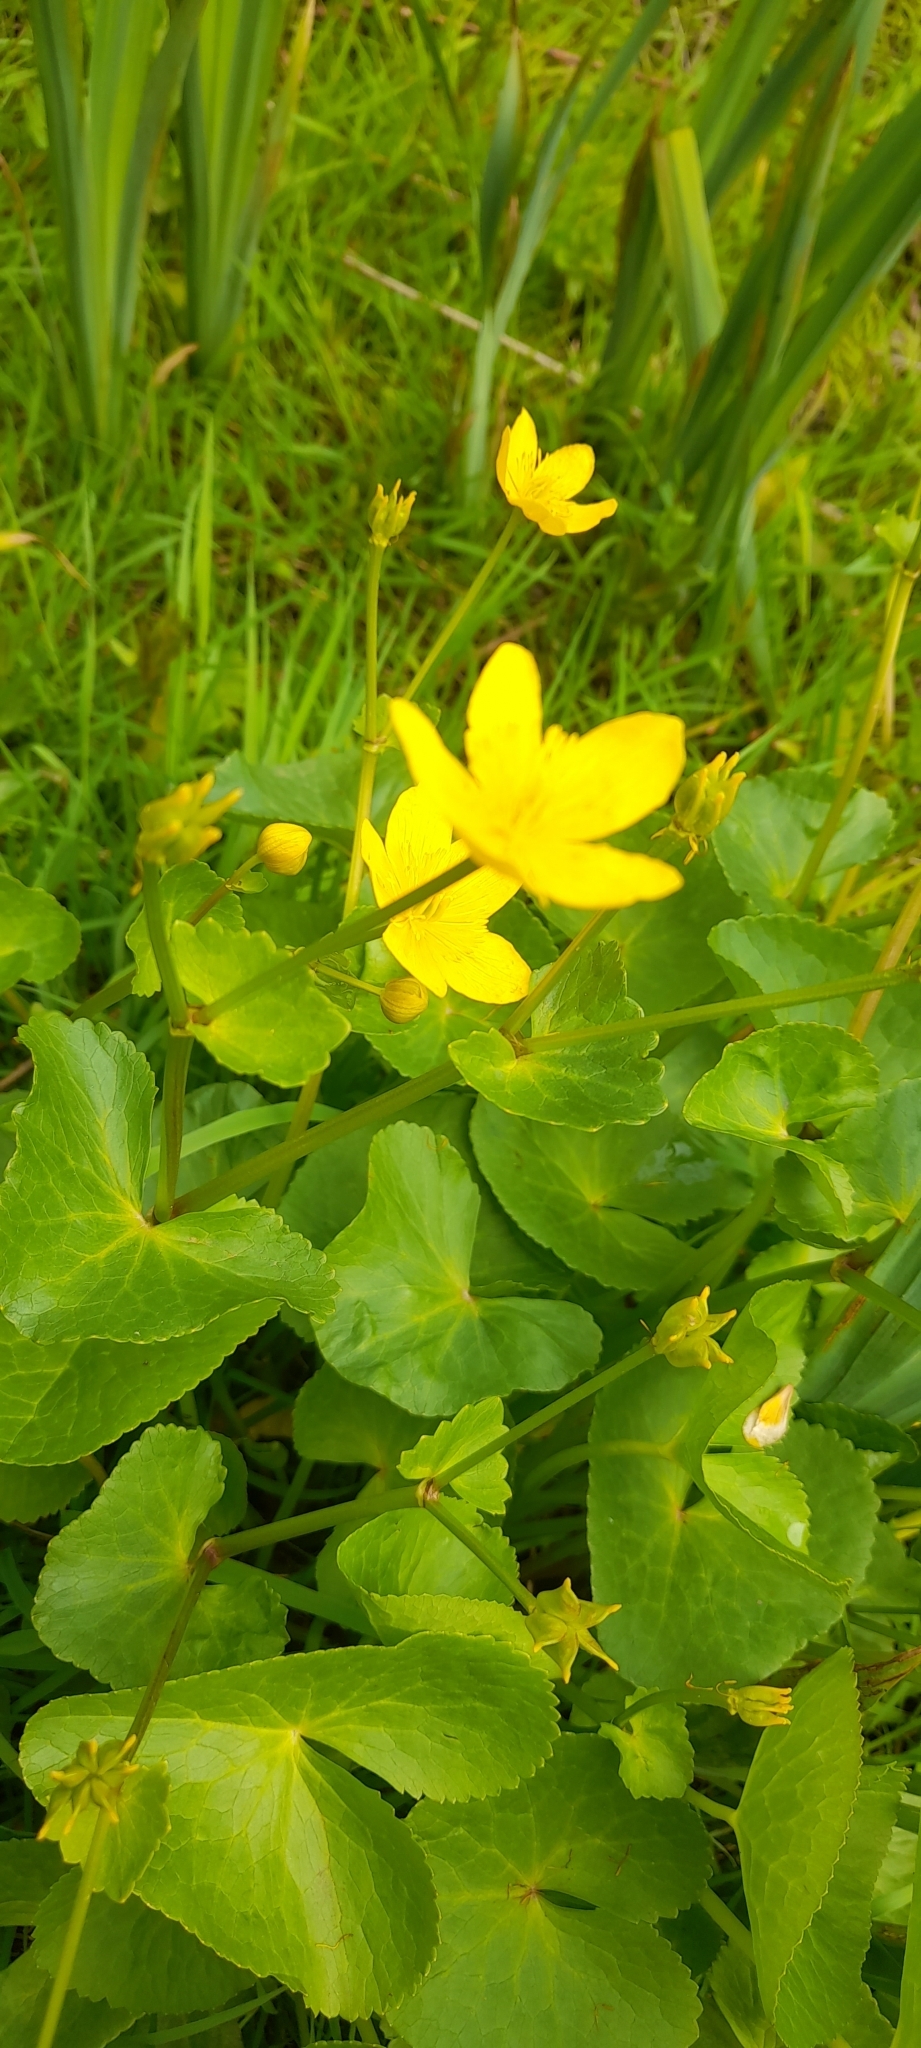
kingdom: Plantae
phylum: Tracheophyta
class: Magnoliopsida
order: Ranunculales
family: Ranunculaceae
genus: Caltha
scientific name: Caltha palustris
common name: Marsh marigold
